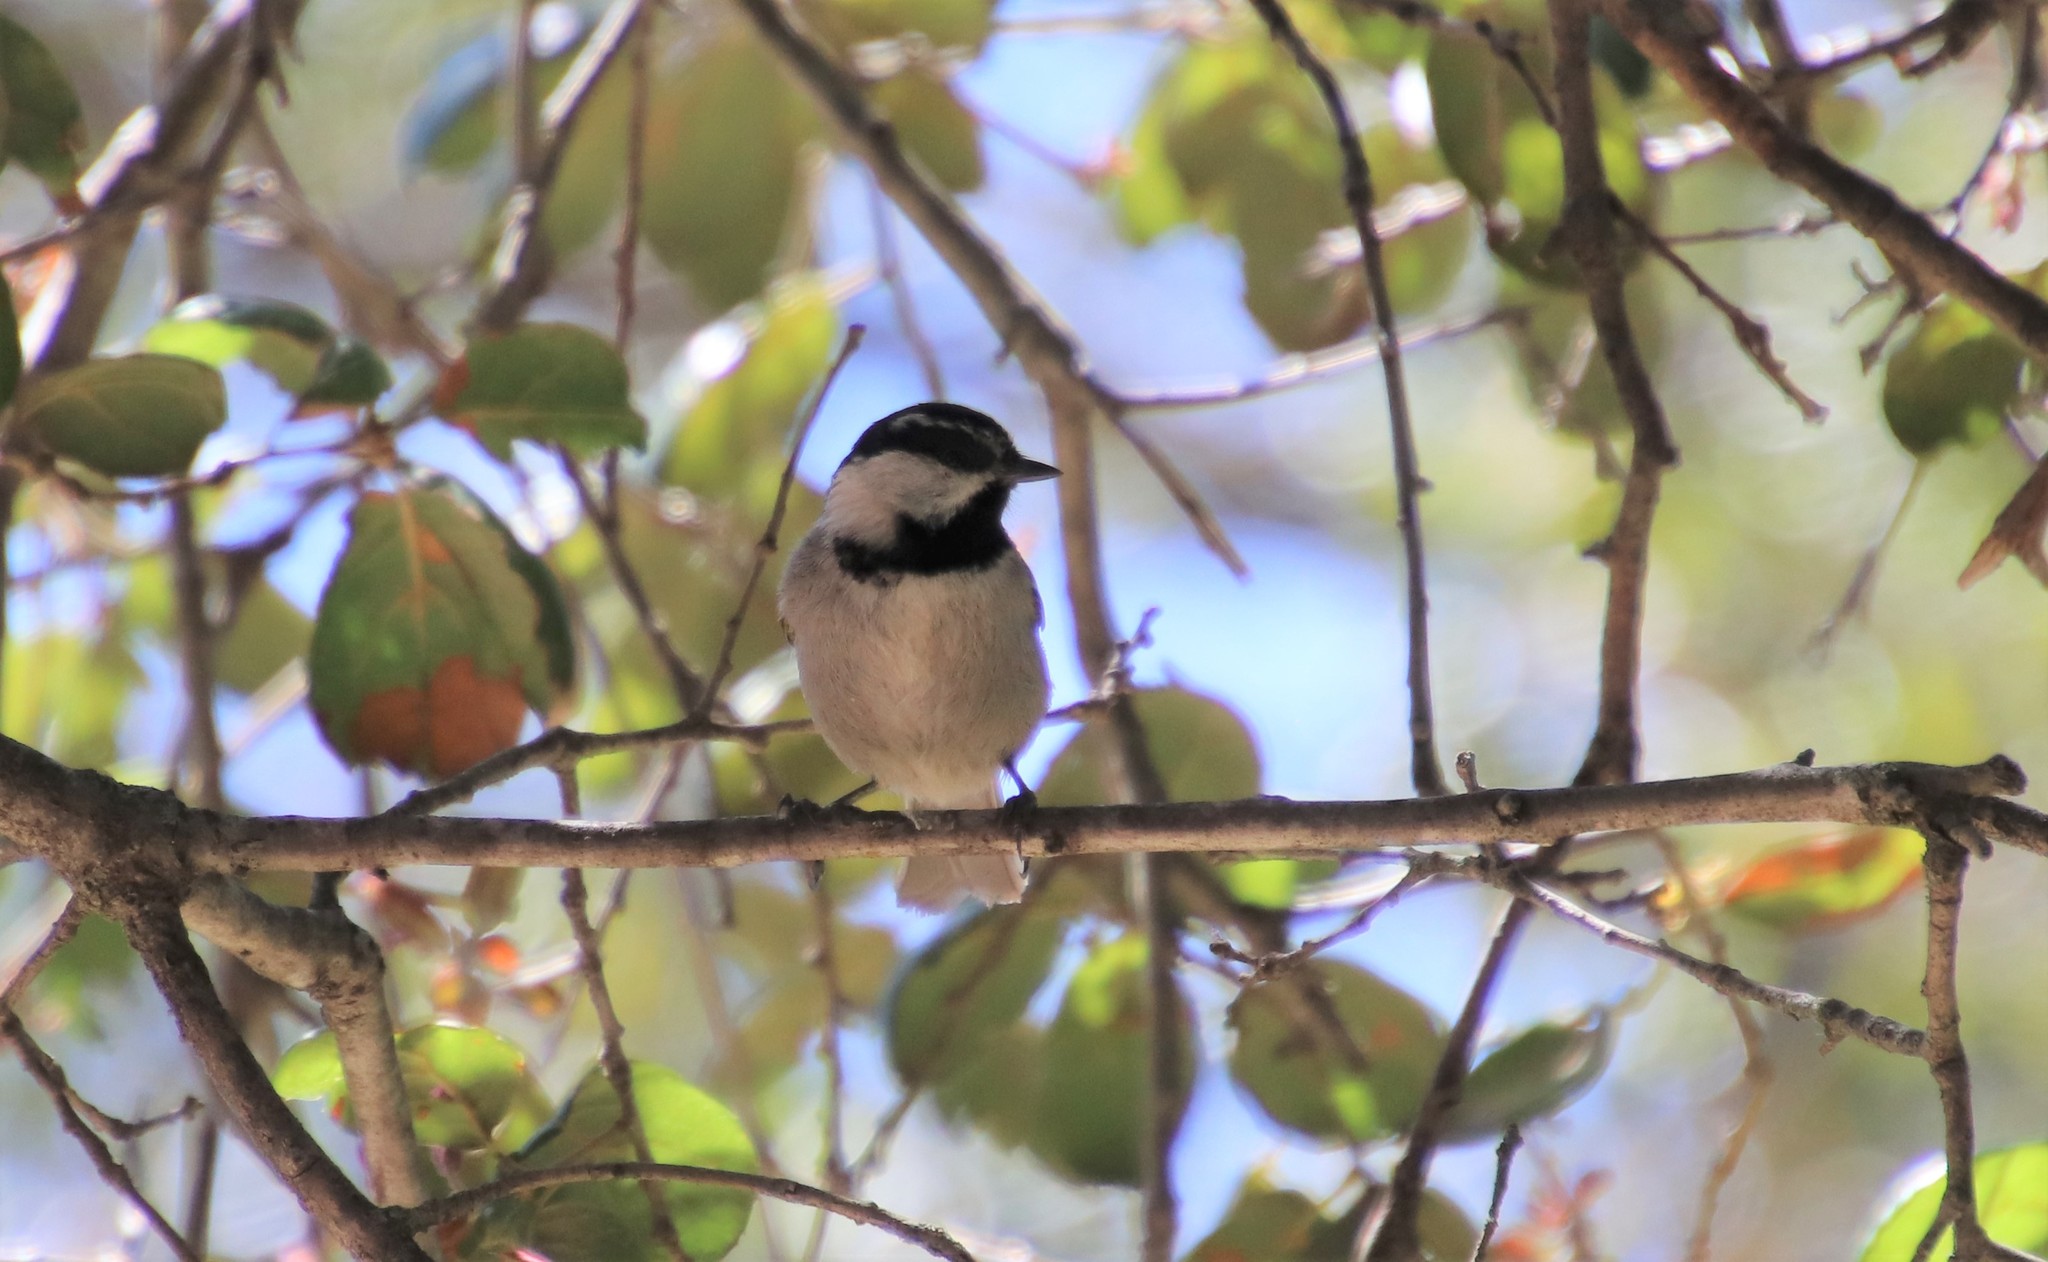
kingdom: Animalia
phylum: Chordata
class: Aves
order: Passeriformes
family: Paridae
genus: Poecile
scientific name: Poecile gambeli
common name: Mountain chickadee
